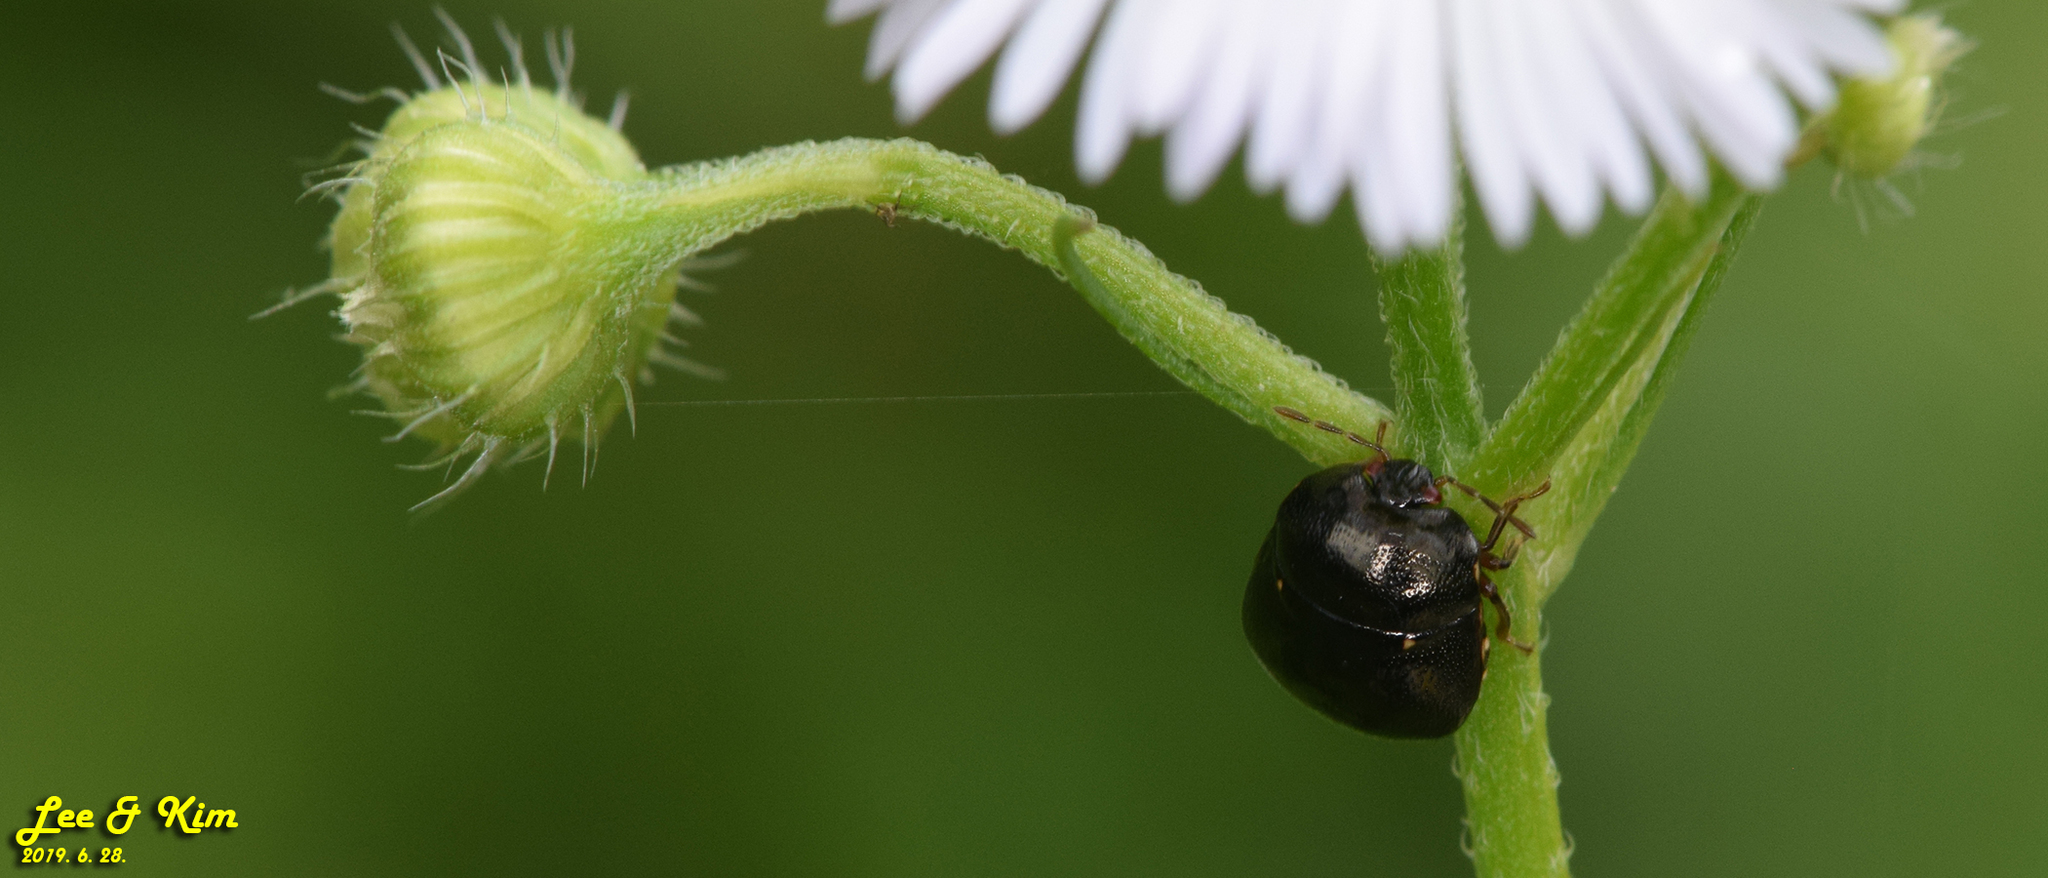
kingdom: Animalia
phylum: Arthropoda
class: Insecta
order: Hemiptera
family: Plataspidae
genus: Coptosoma
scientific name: Coptosoma parvipicta
